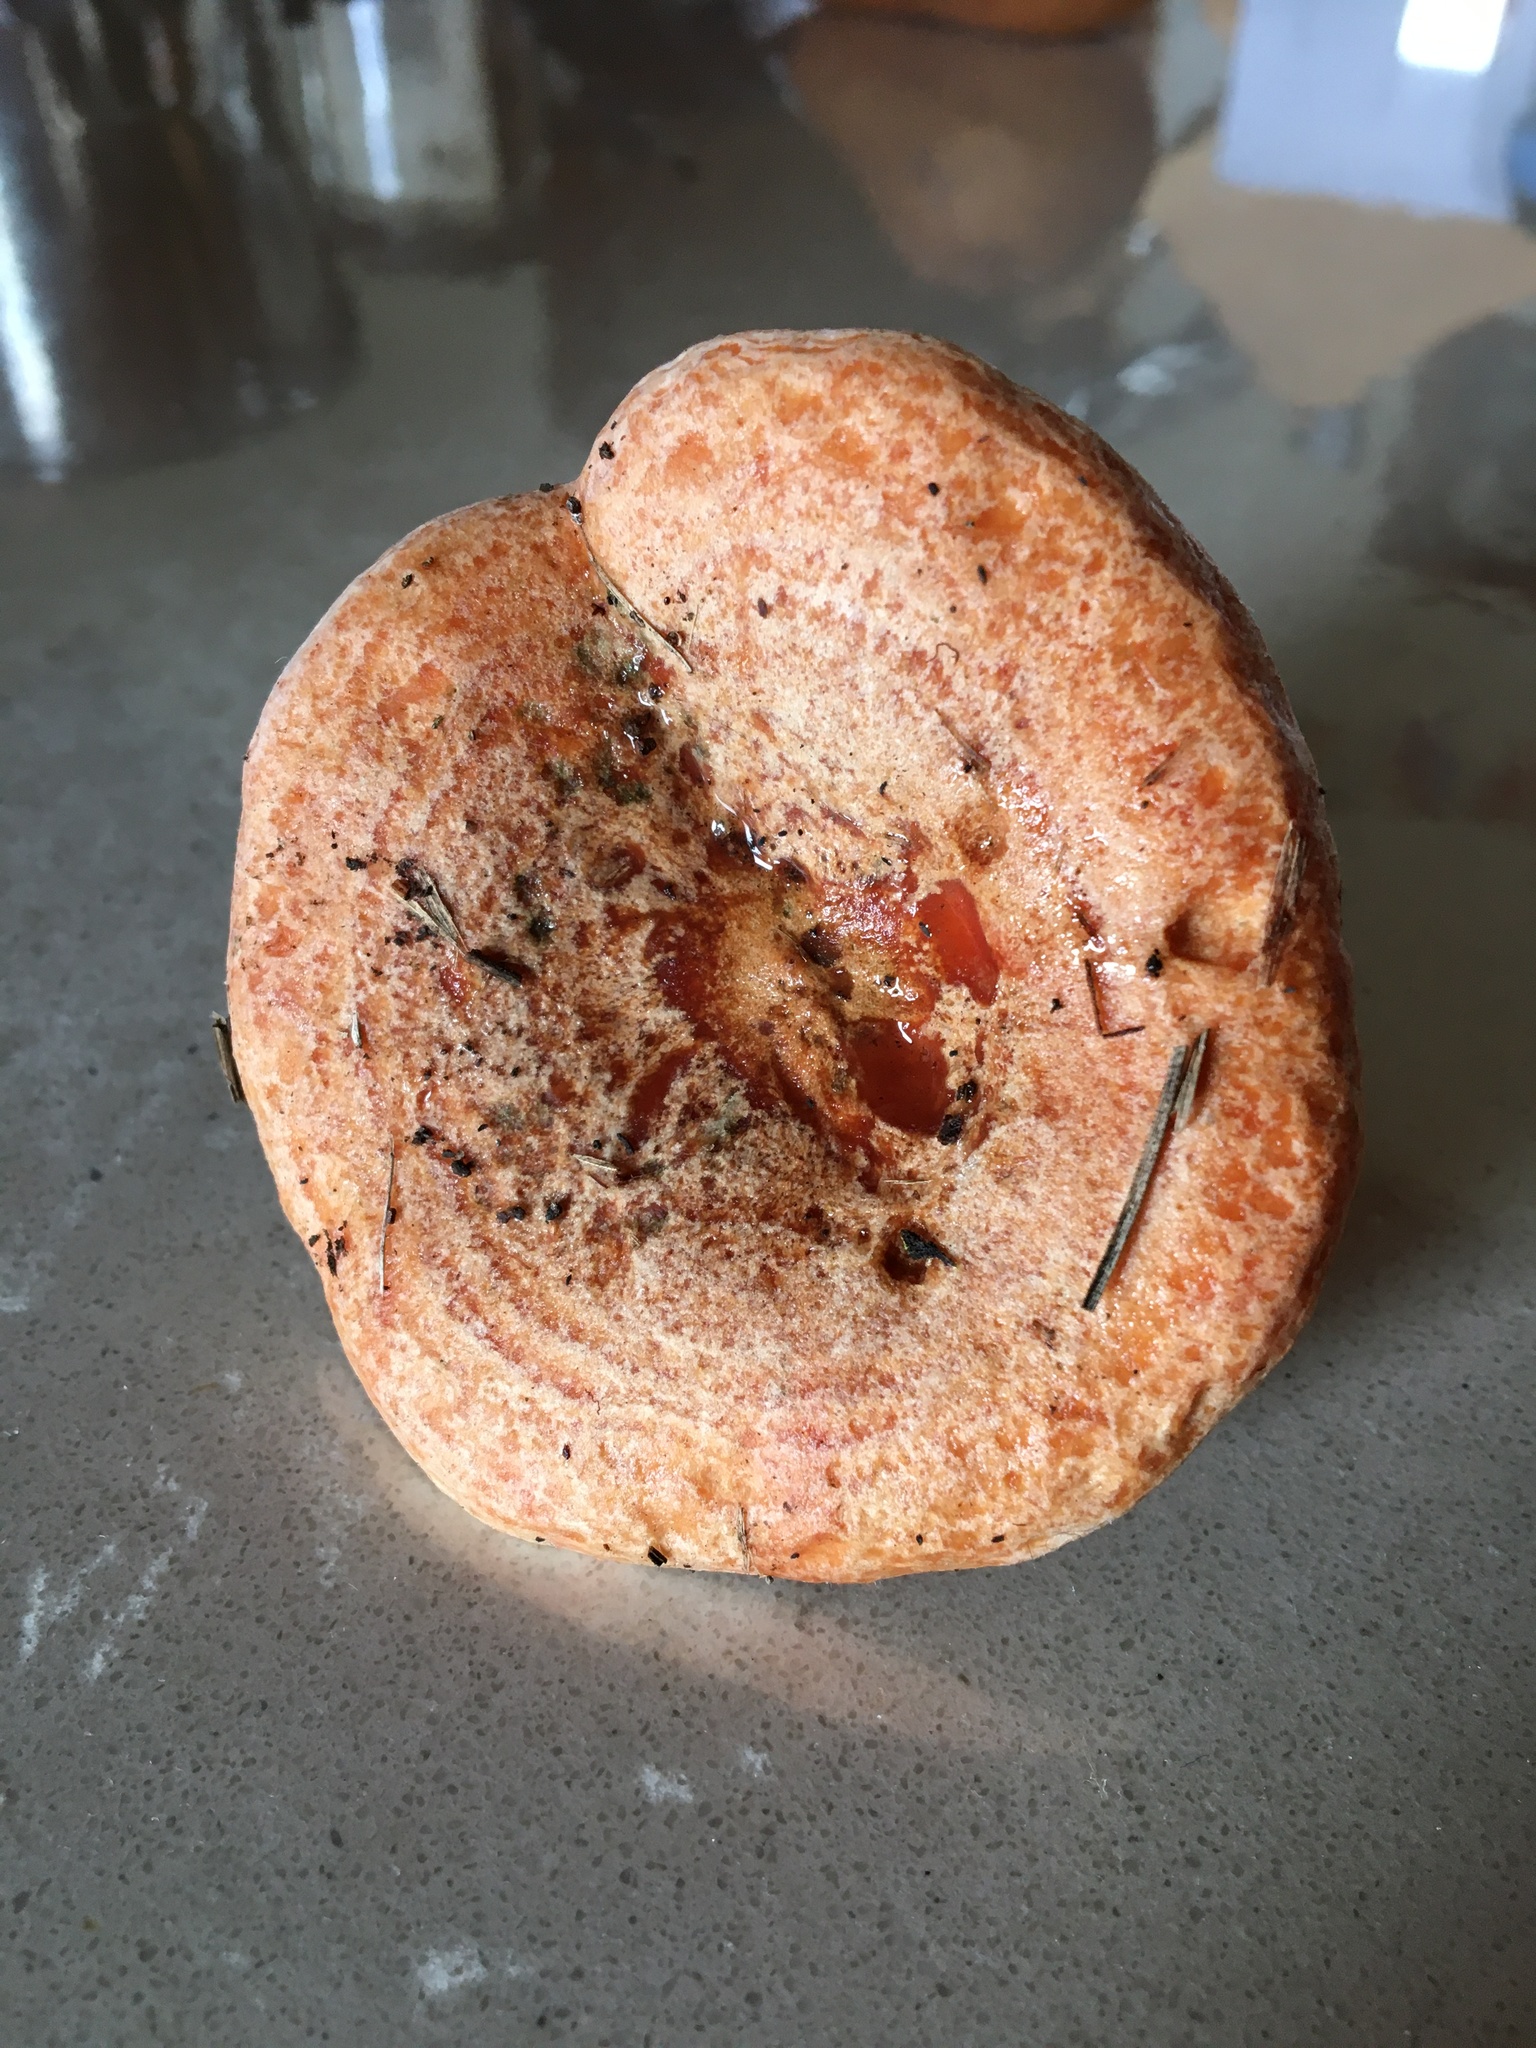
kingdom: Fungi
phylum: Basidiomycota
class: Agaricomycetes
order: Russulales
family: Russulaceae
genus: Lactarius
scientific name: Lactarius deliciosus
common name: Saffron milk-cap
